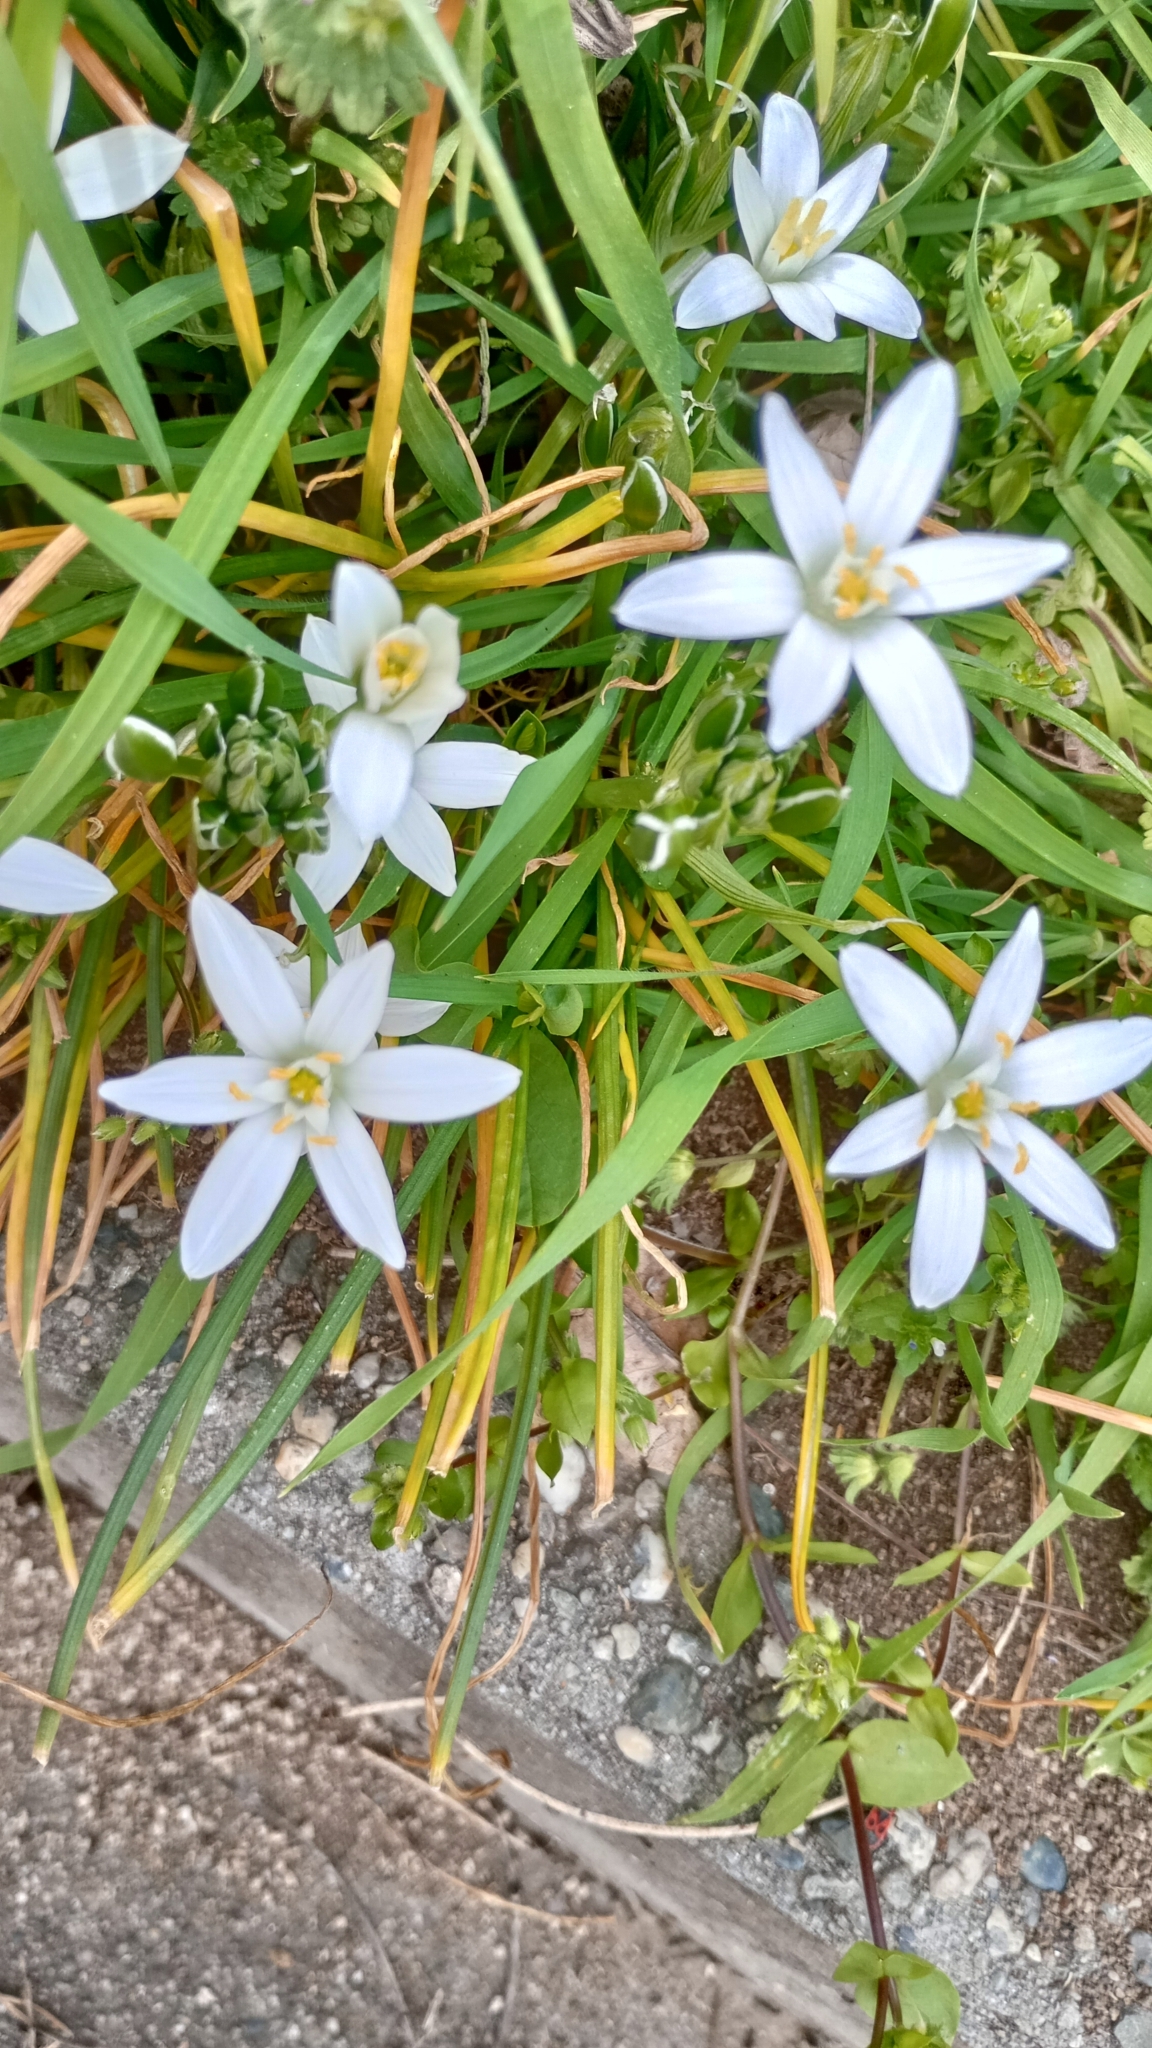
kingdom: Plantae
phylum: Tracheophyta
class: Liliopsida
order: Asparagales
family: Asparagaceae
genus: Ornithogalum
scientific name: Ornithogalum divergens
